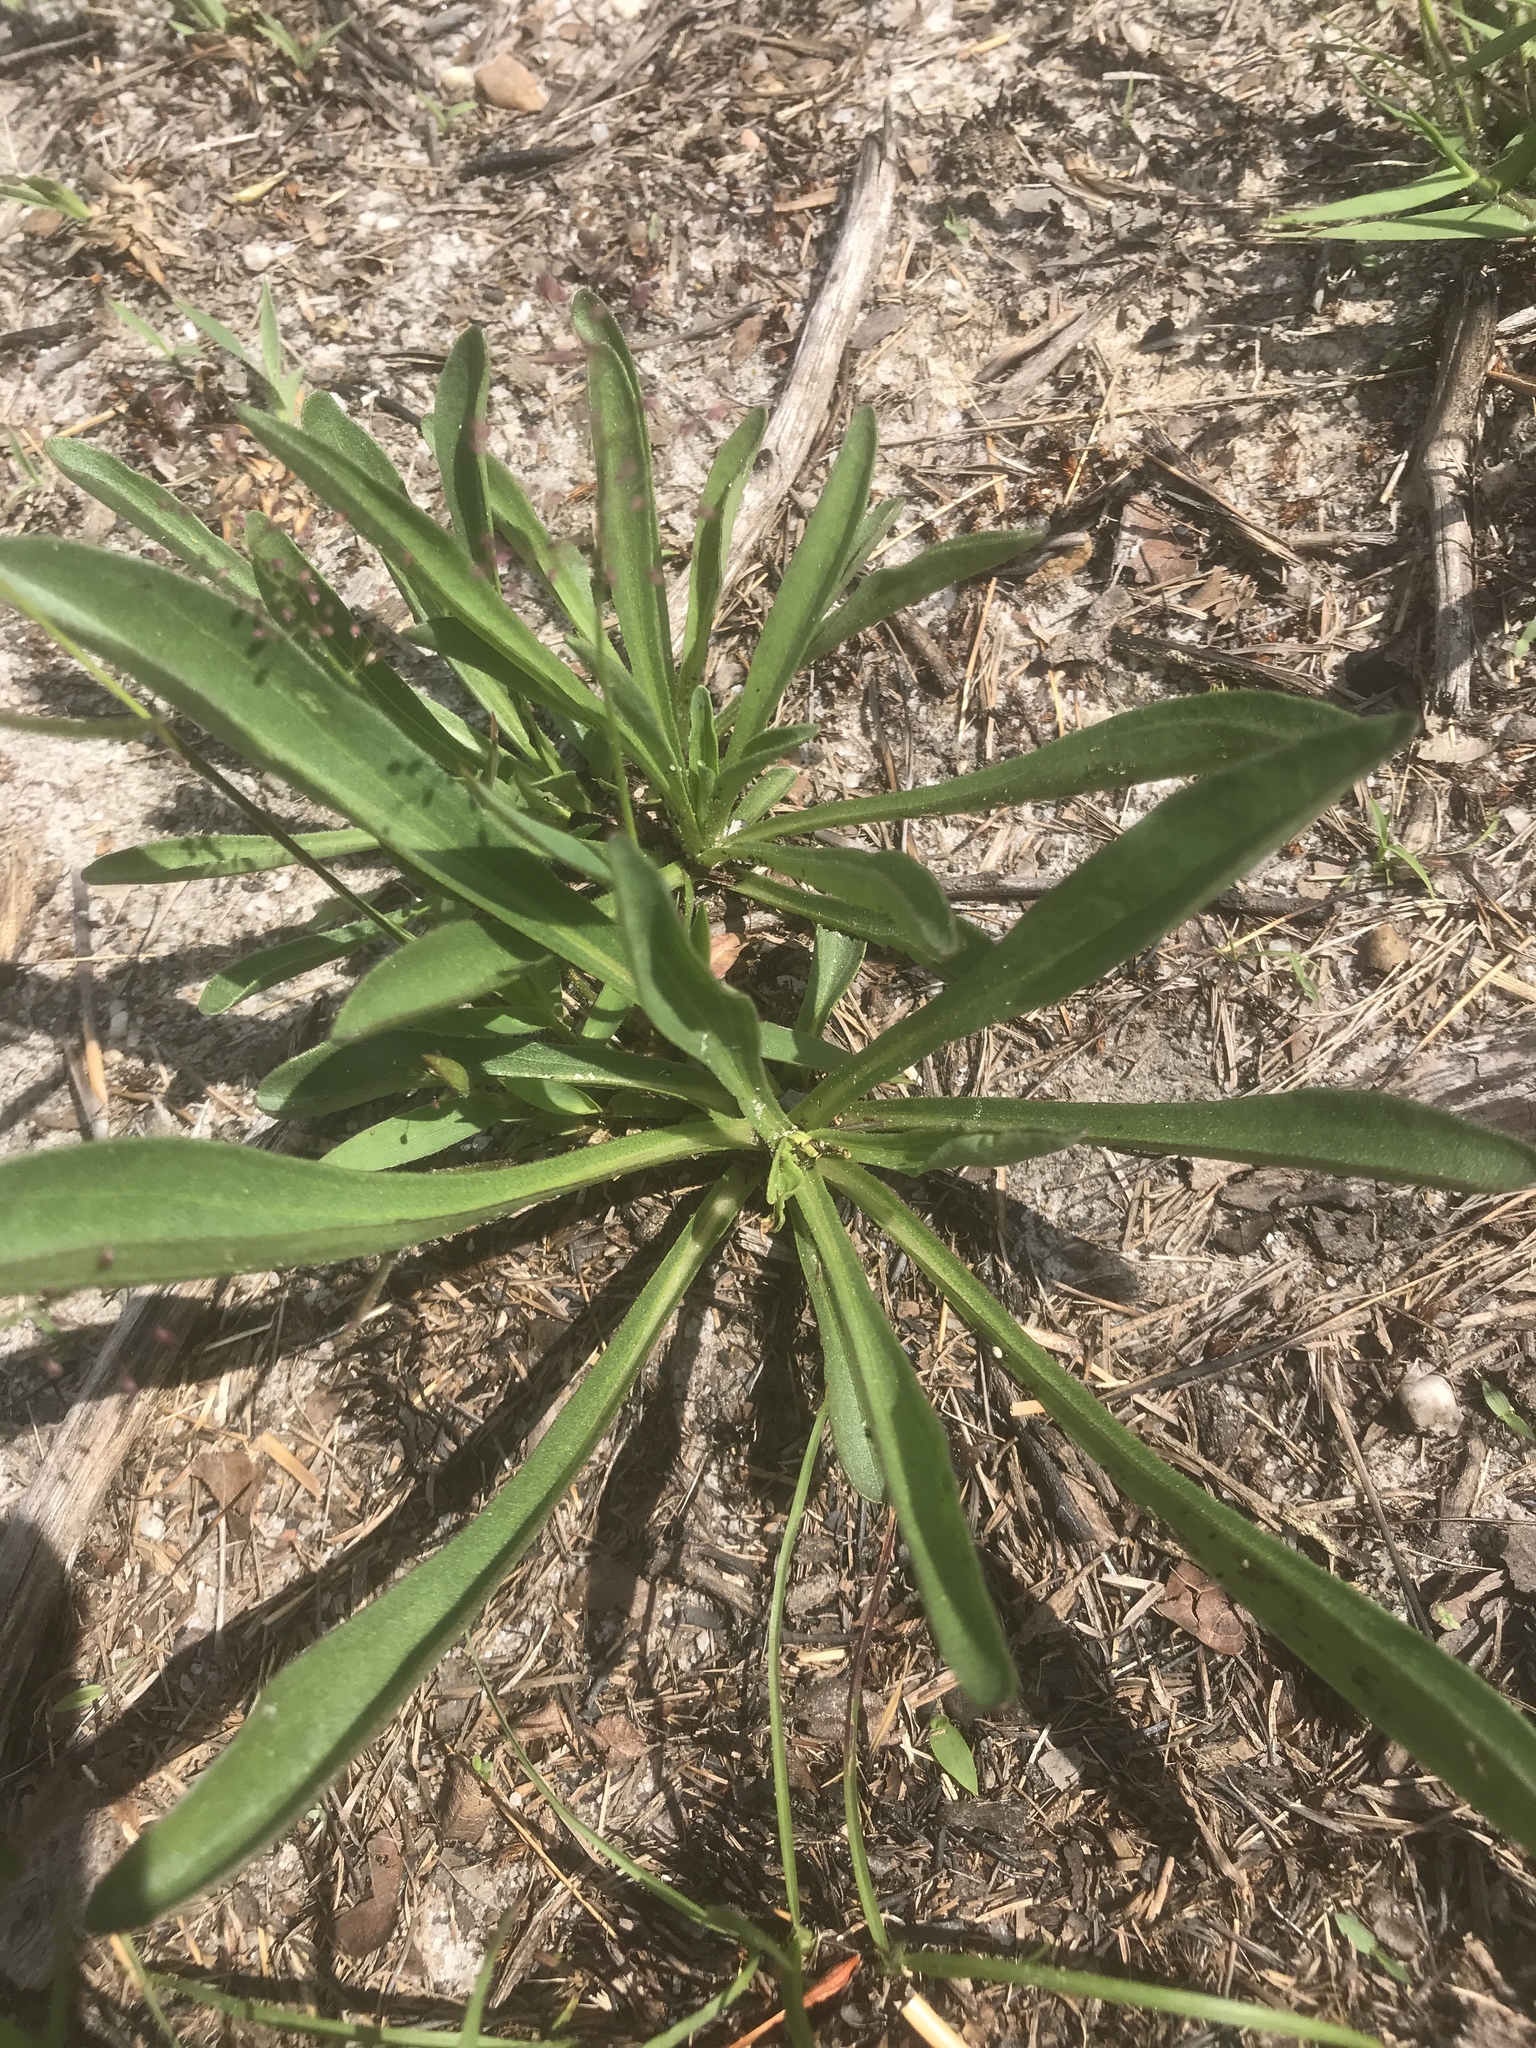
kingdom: Plantae
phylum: Tracheophyta
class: Magnoliopsida
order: Asterales
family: Asteraceae
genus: Carphephorus
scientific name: Carphephorus bellidifolius
